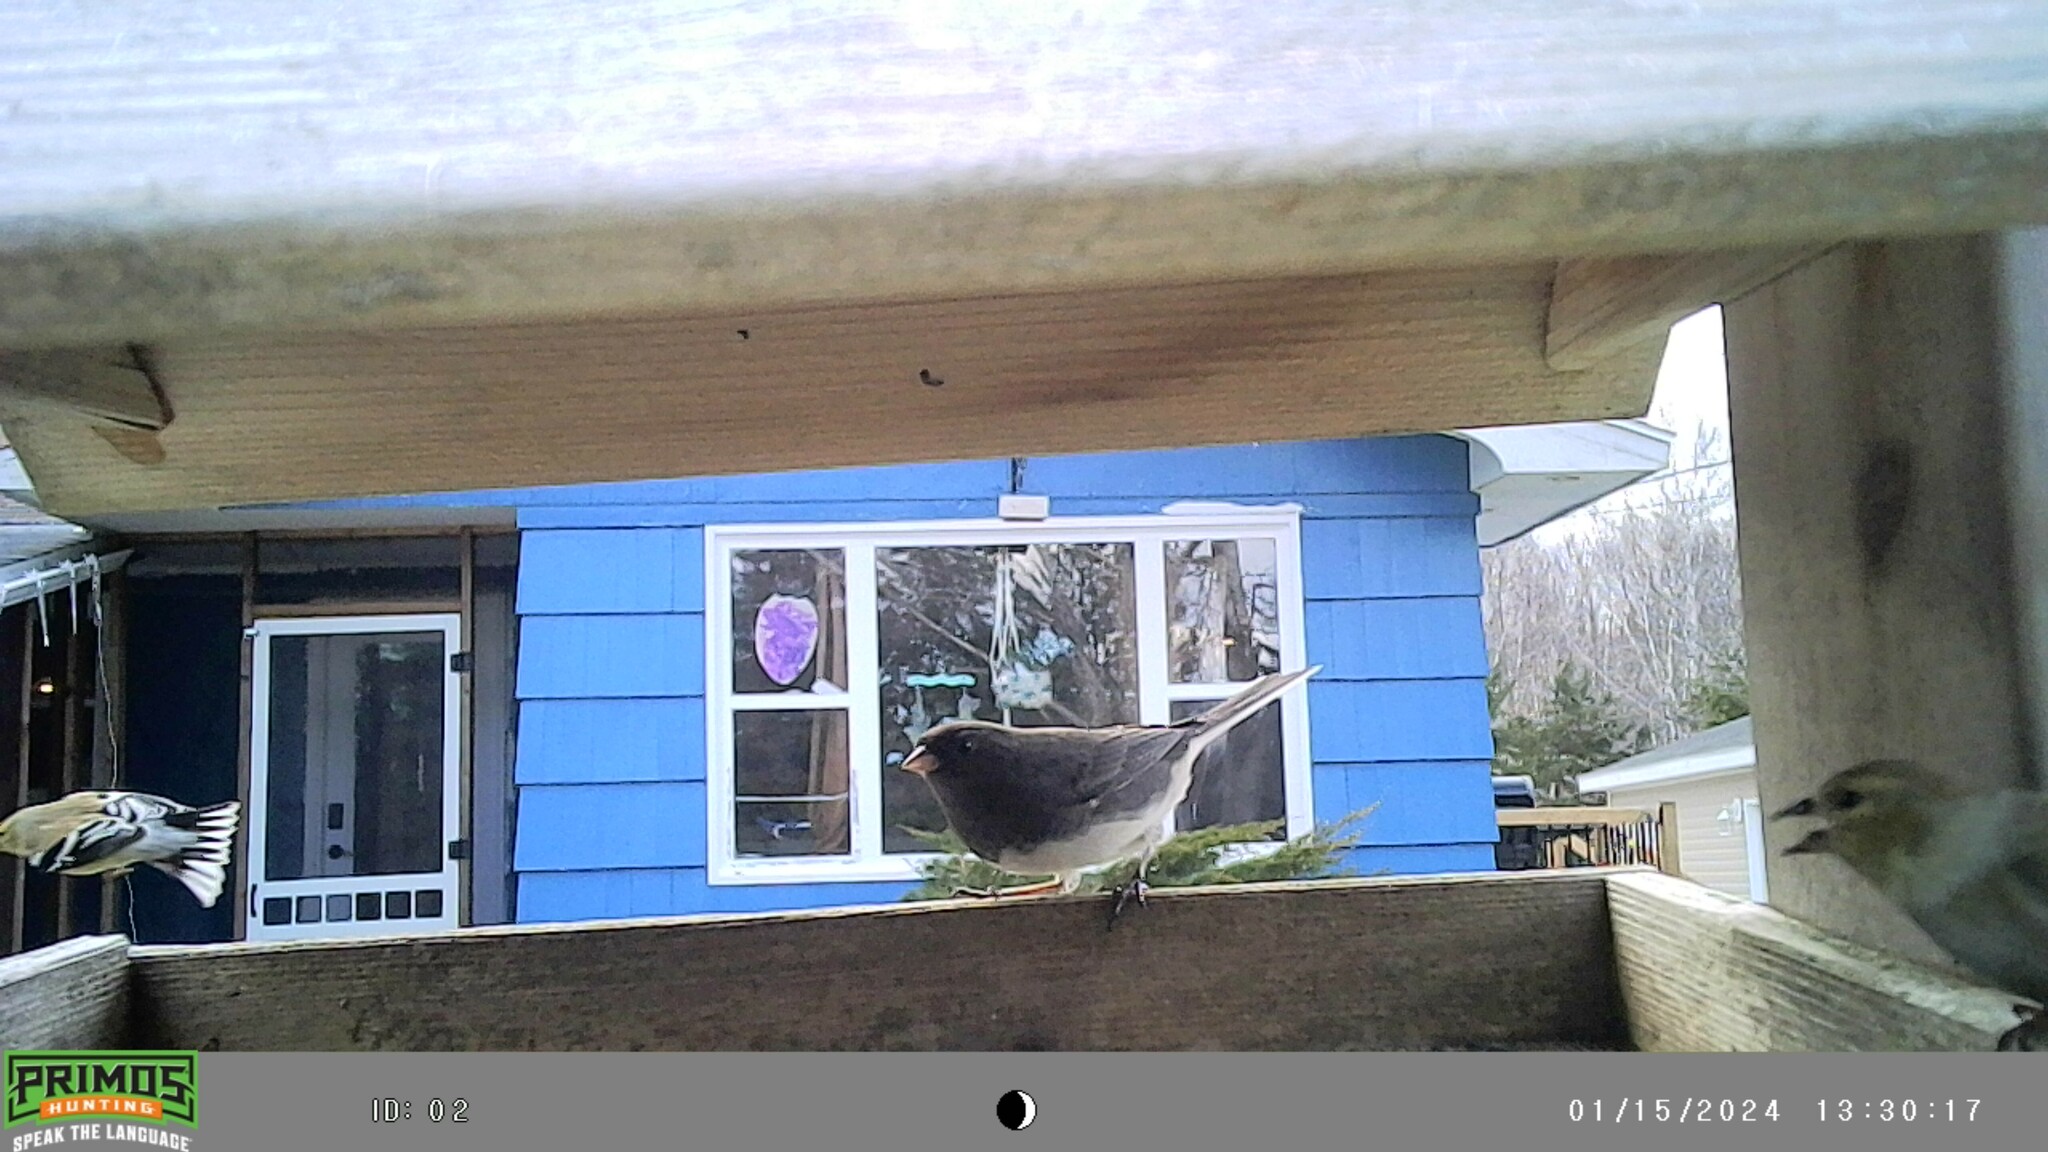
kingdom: Animalia
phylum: Chordata
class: Aves
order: Passeriformes
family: Passerellidae
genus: Junco
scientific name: Junco hyemalis
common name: Dark-eyed junco
